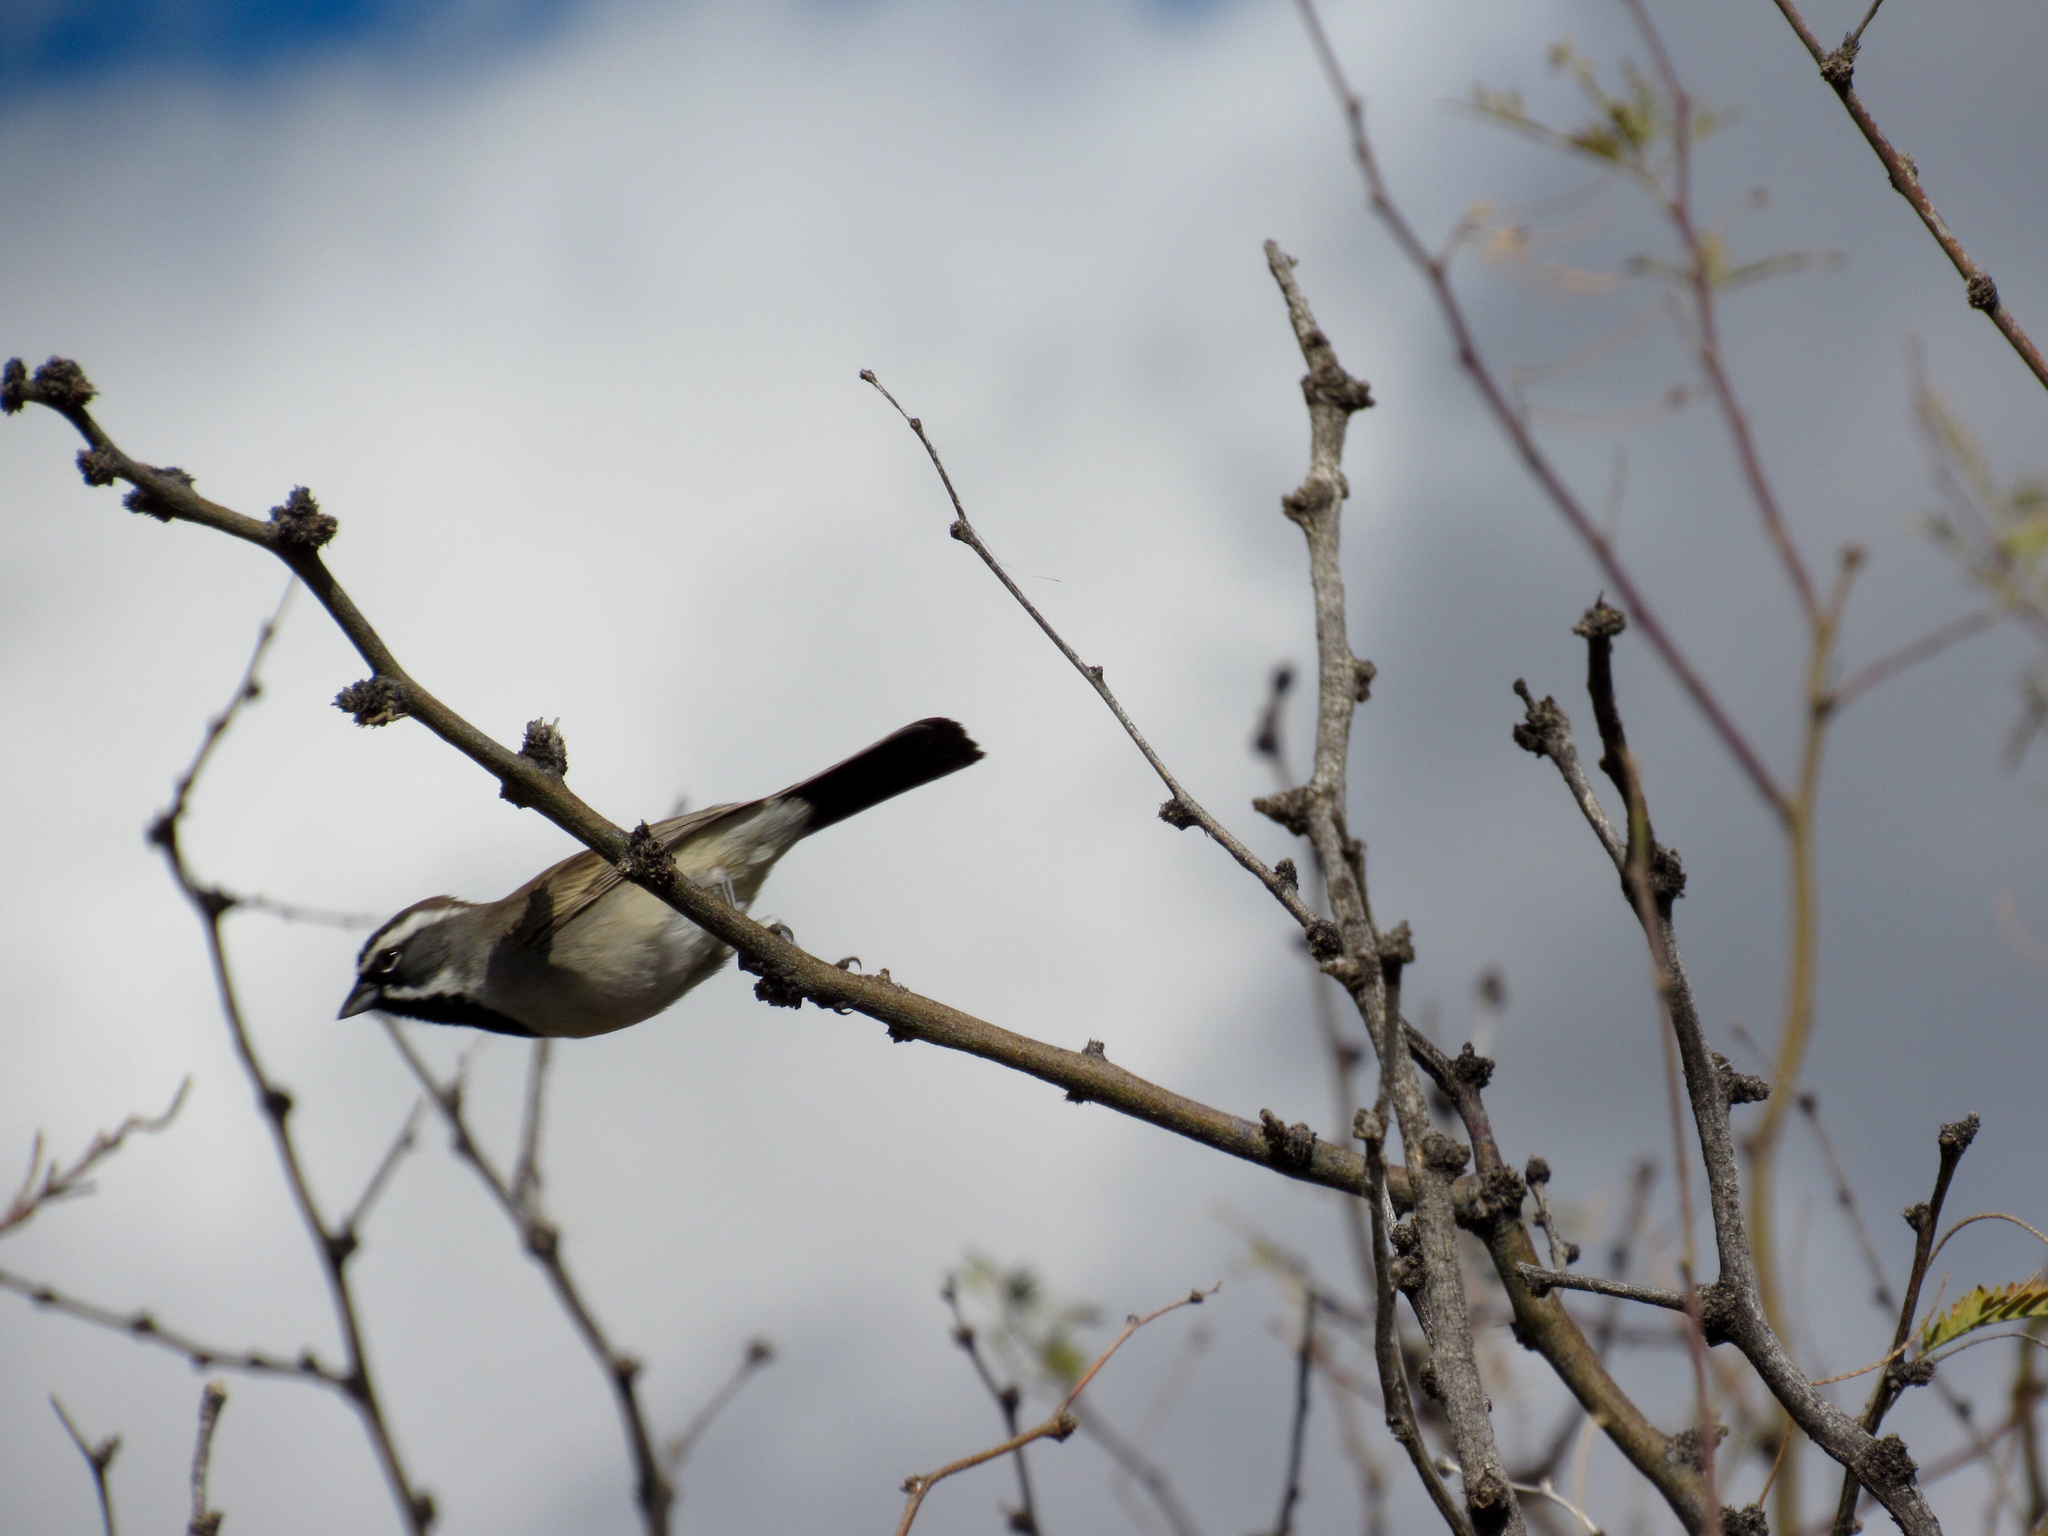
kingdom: Animalia
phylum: Chordata
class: Aves
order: Passeriformes
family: Passerellidae
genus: Amphispiza
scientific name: Amphispiza bilineata
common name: Black-throated sparrow
